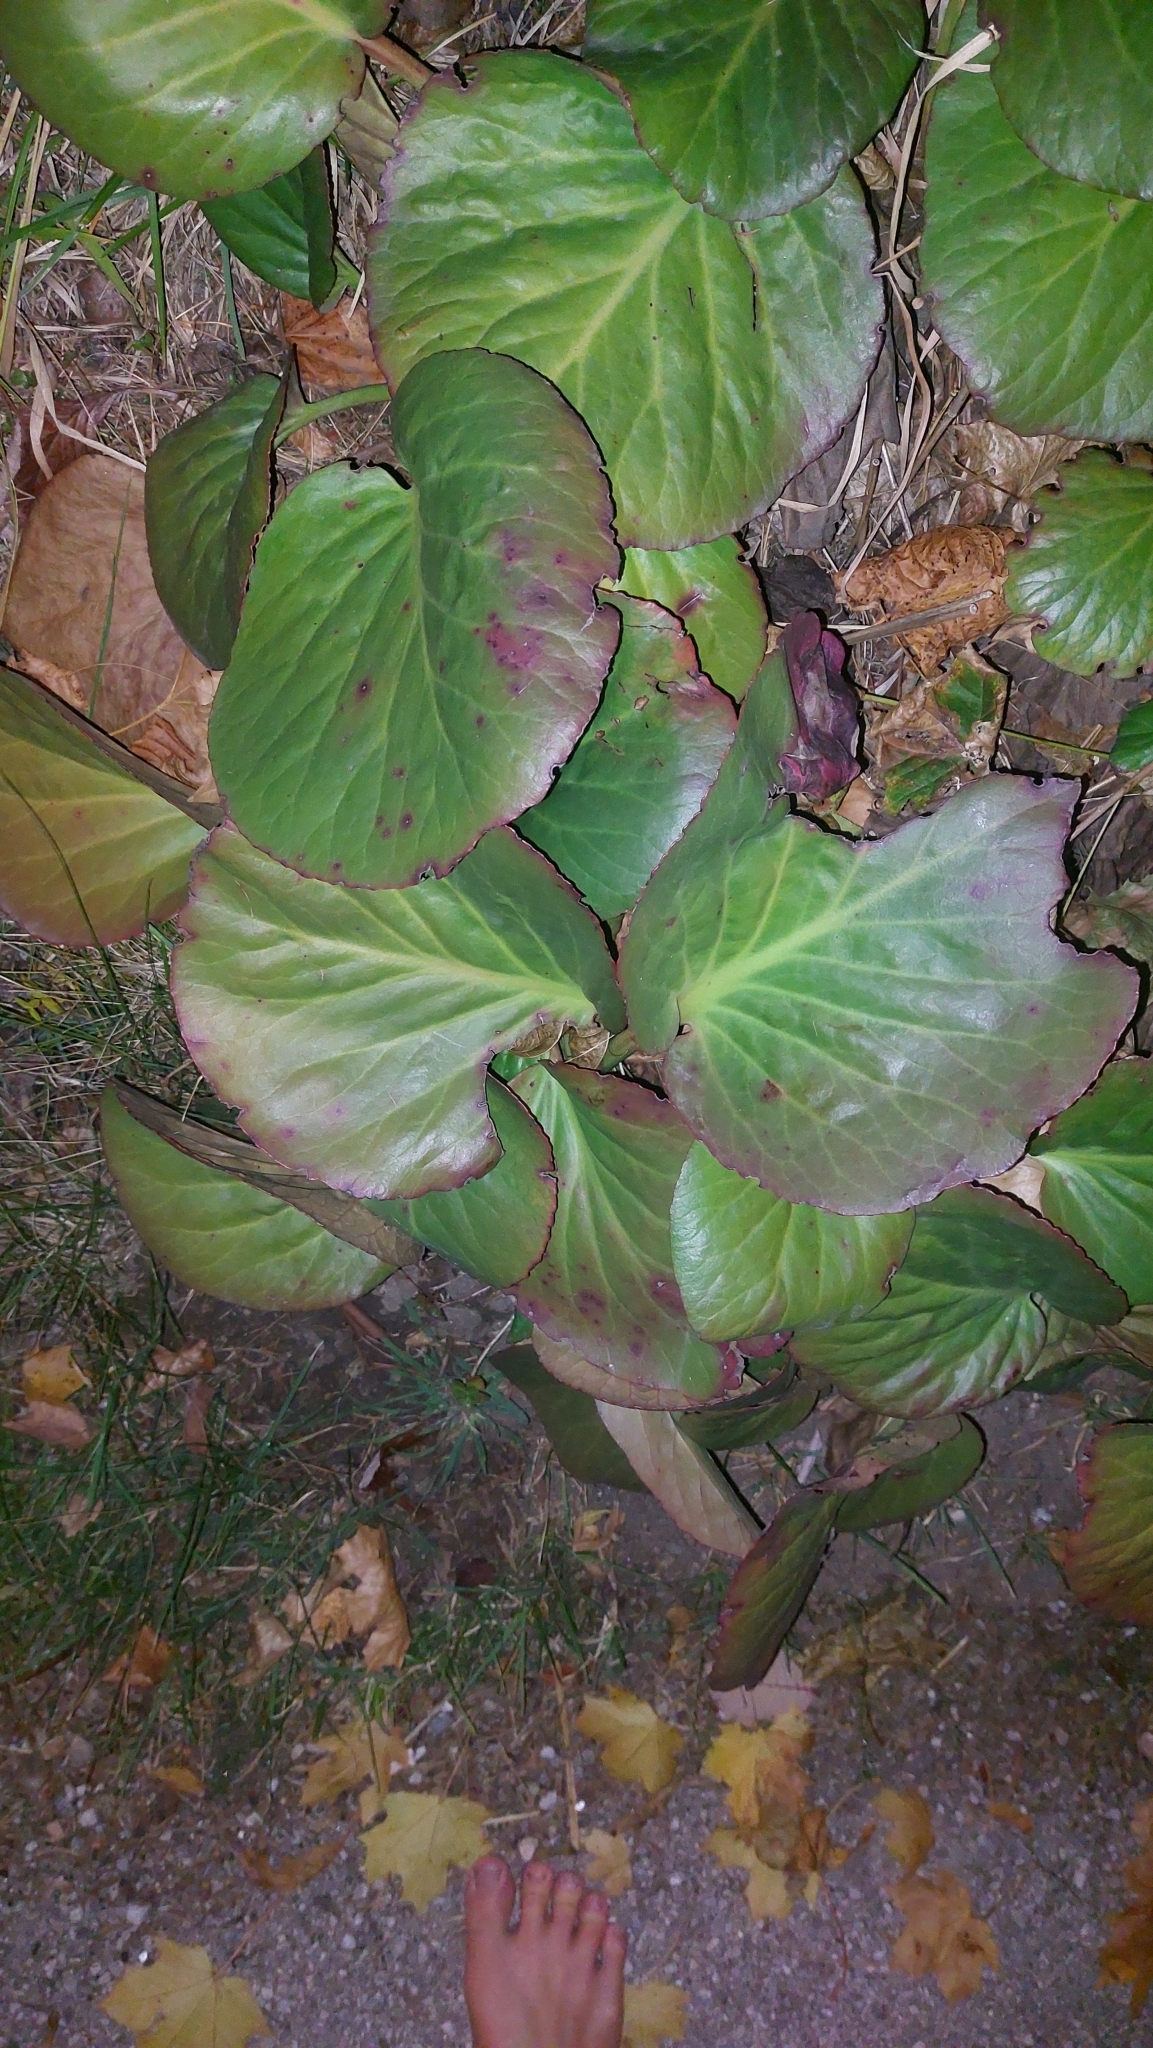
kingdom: Plantae
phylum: Tracheophyta
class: Magnoliopsida
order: Saxifragales
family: Saxifragaceae
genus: Bergenia
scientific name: Bergenia crassifolia
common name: Elephant-ears
